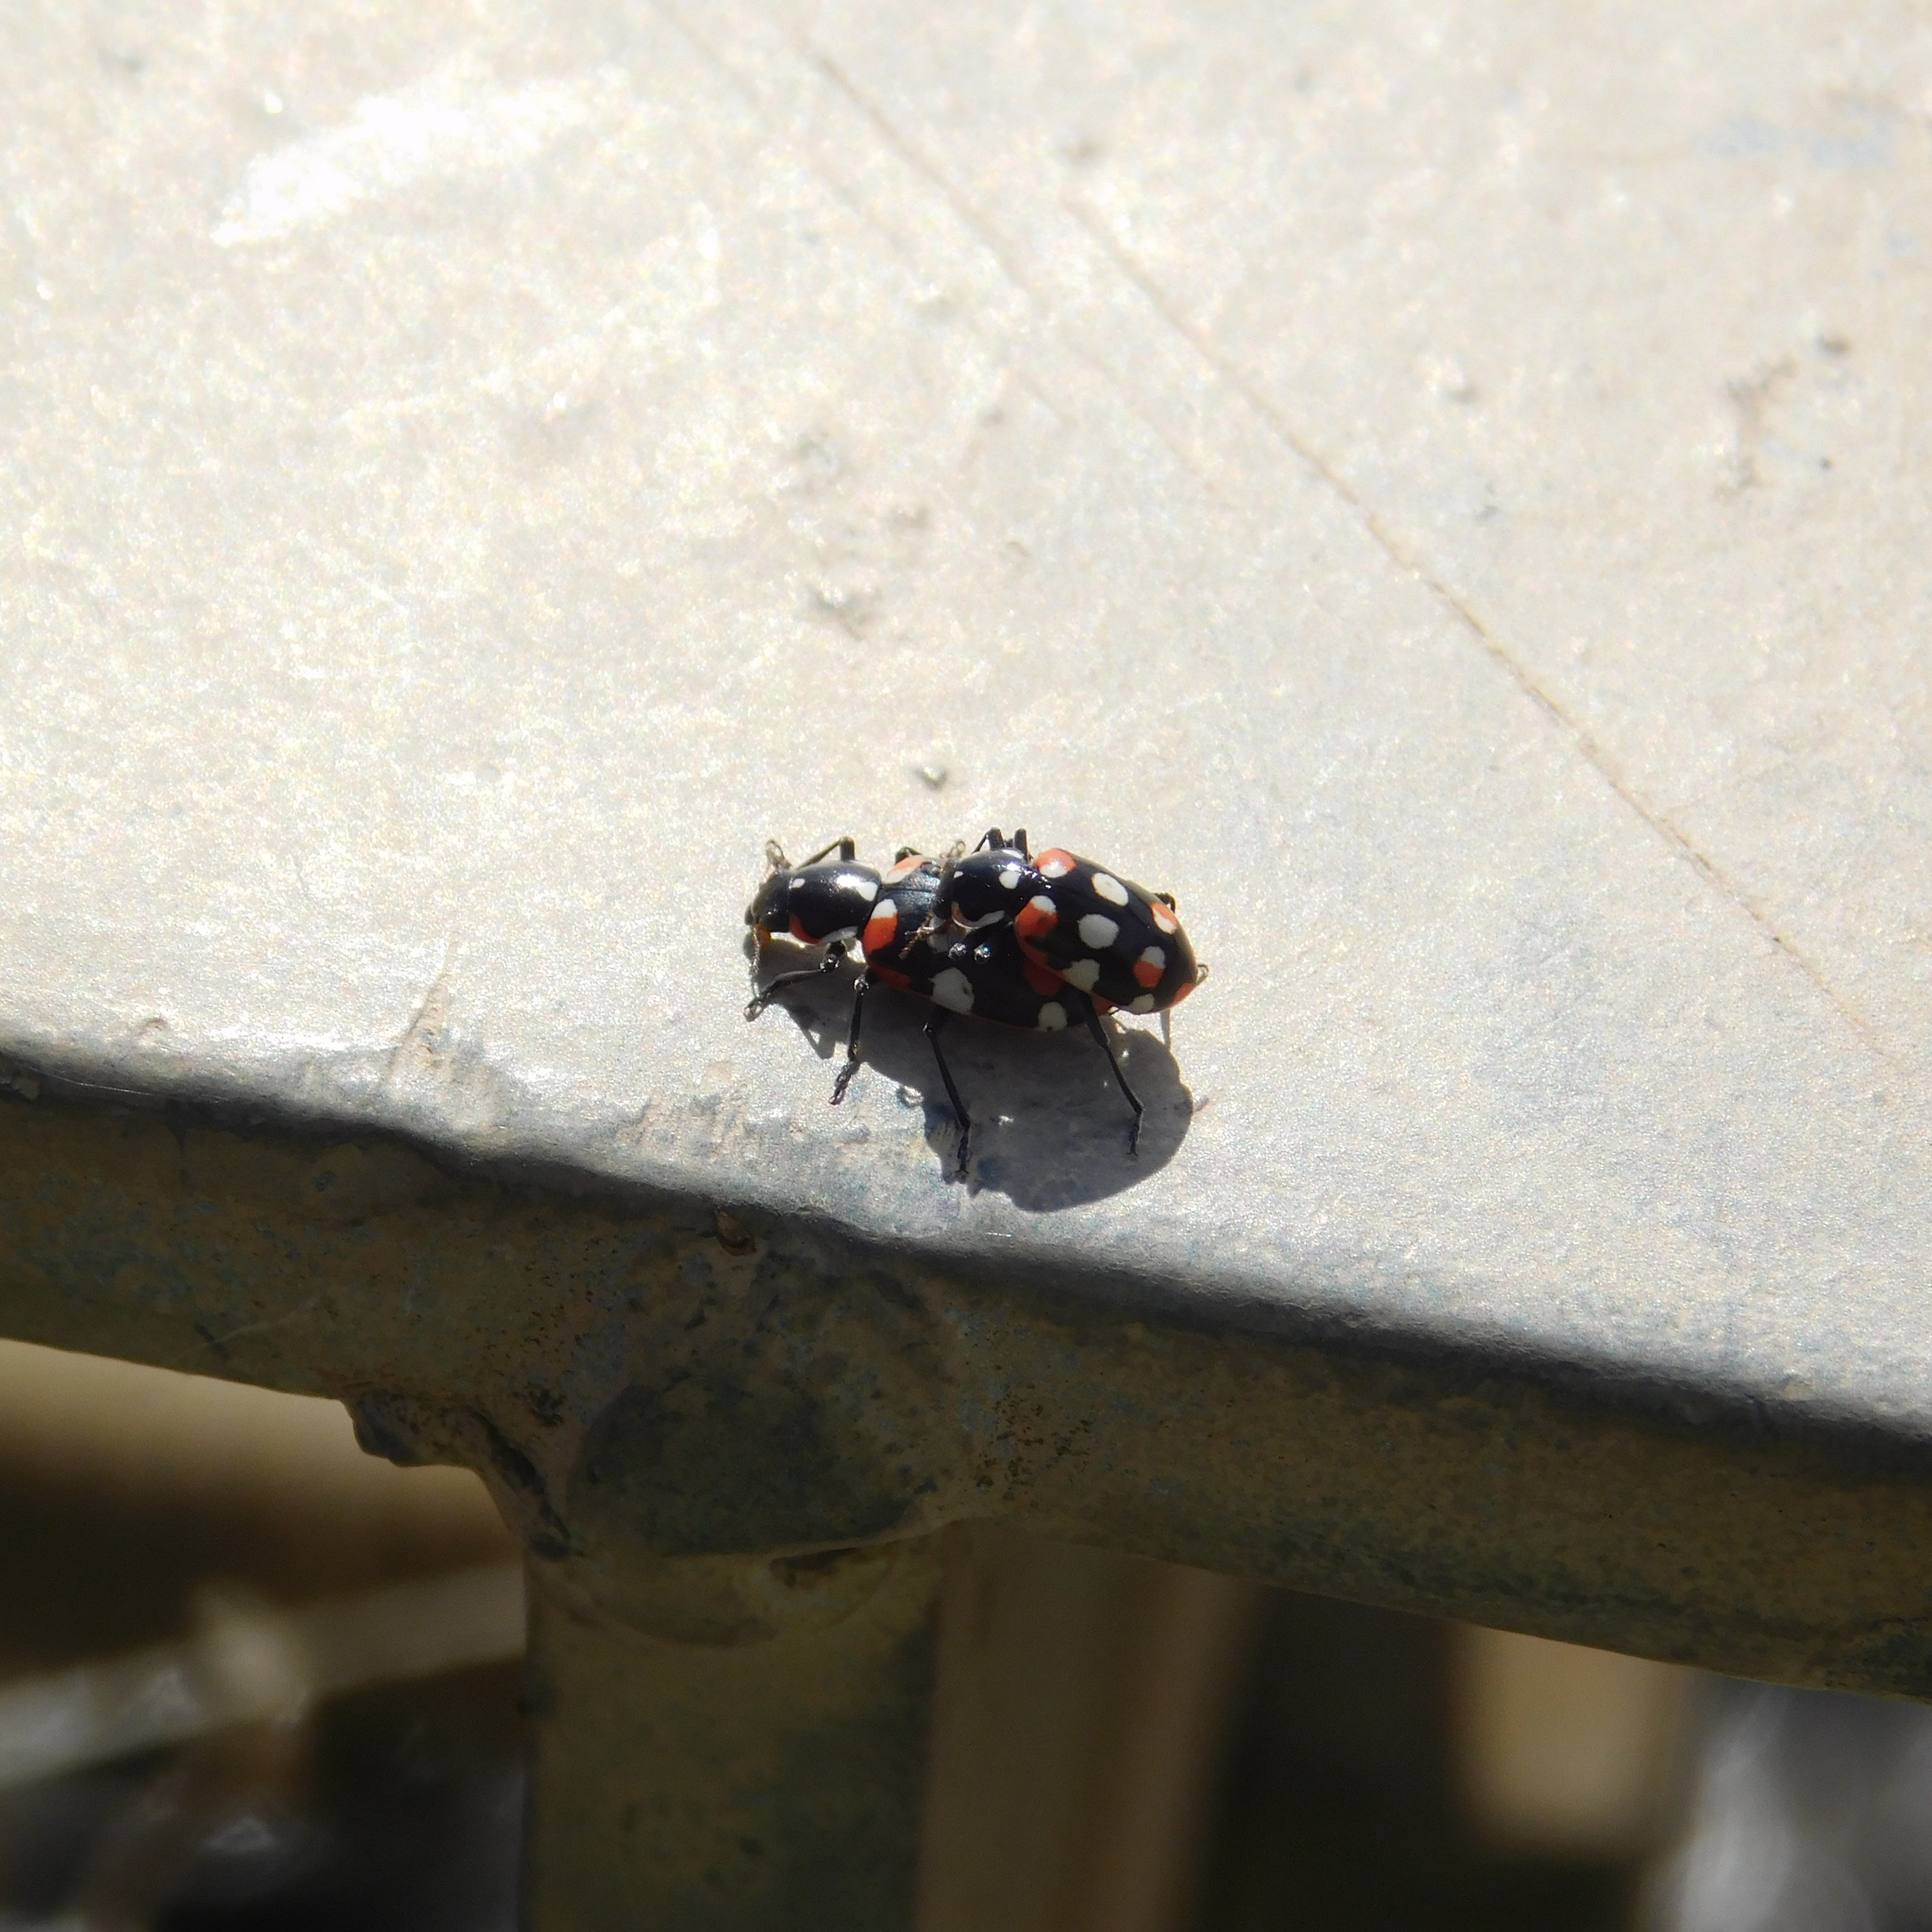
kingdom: Animalia
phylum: Arthropoda
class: Insecta
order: Coleoptera
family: Coccinellidae
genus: Eriopis
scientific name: Eriopis connexa
